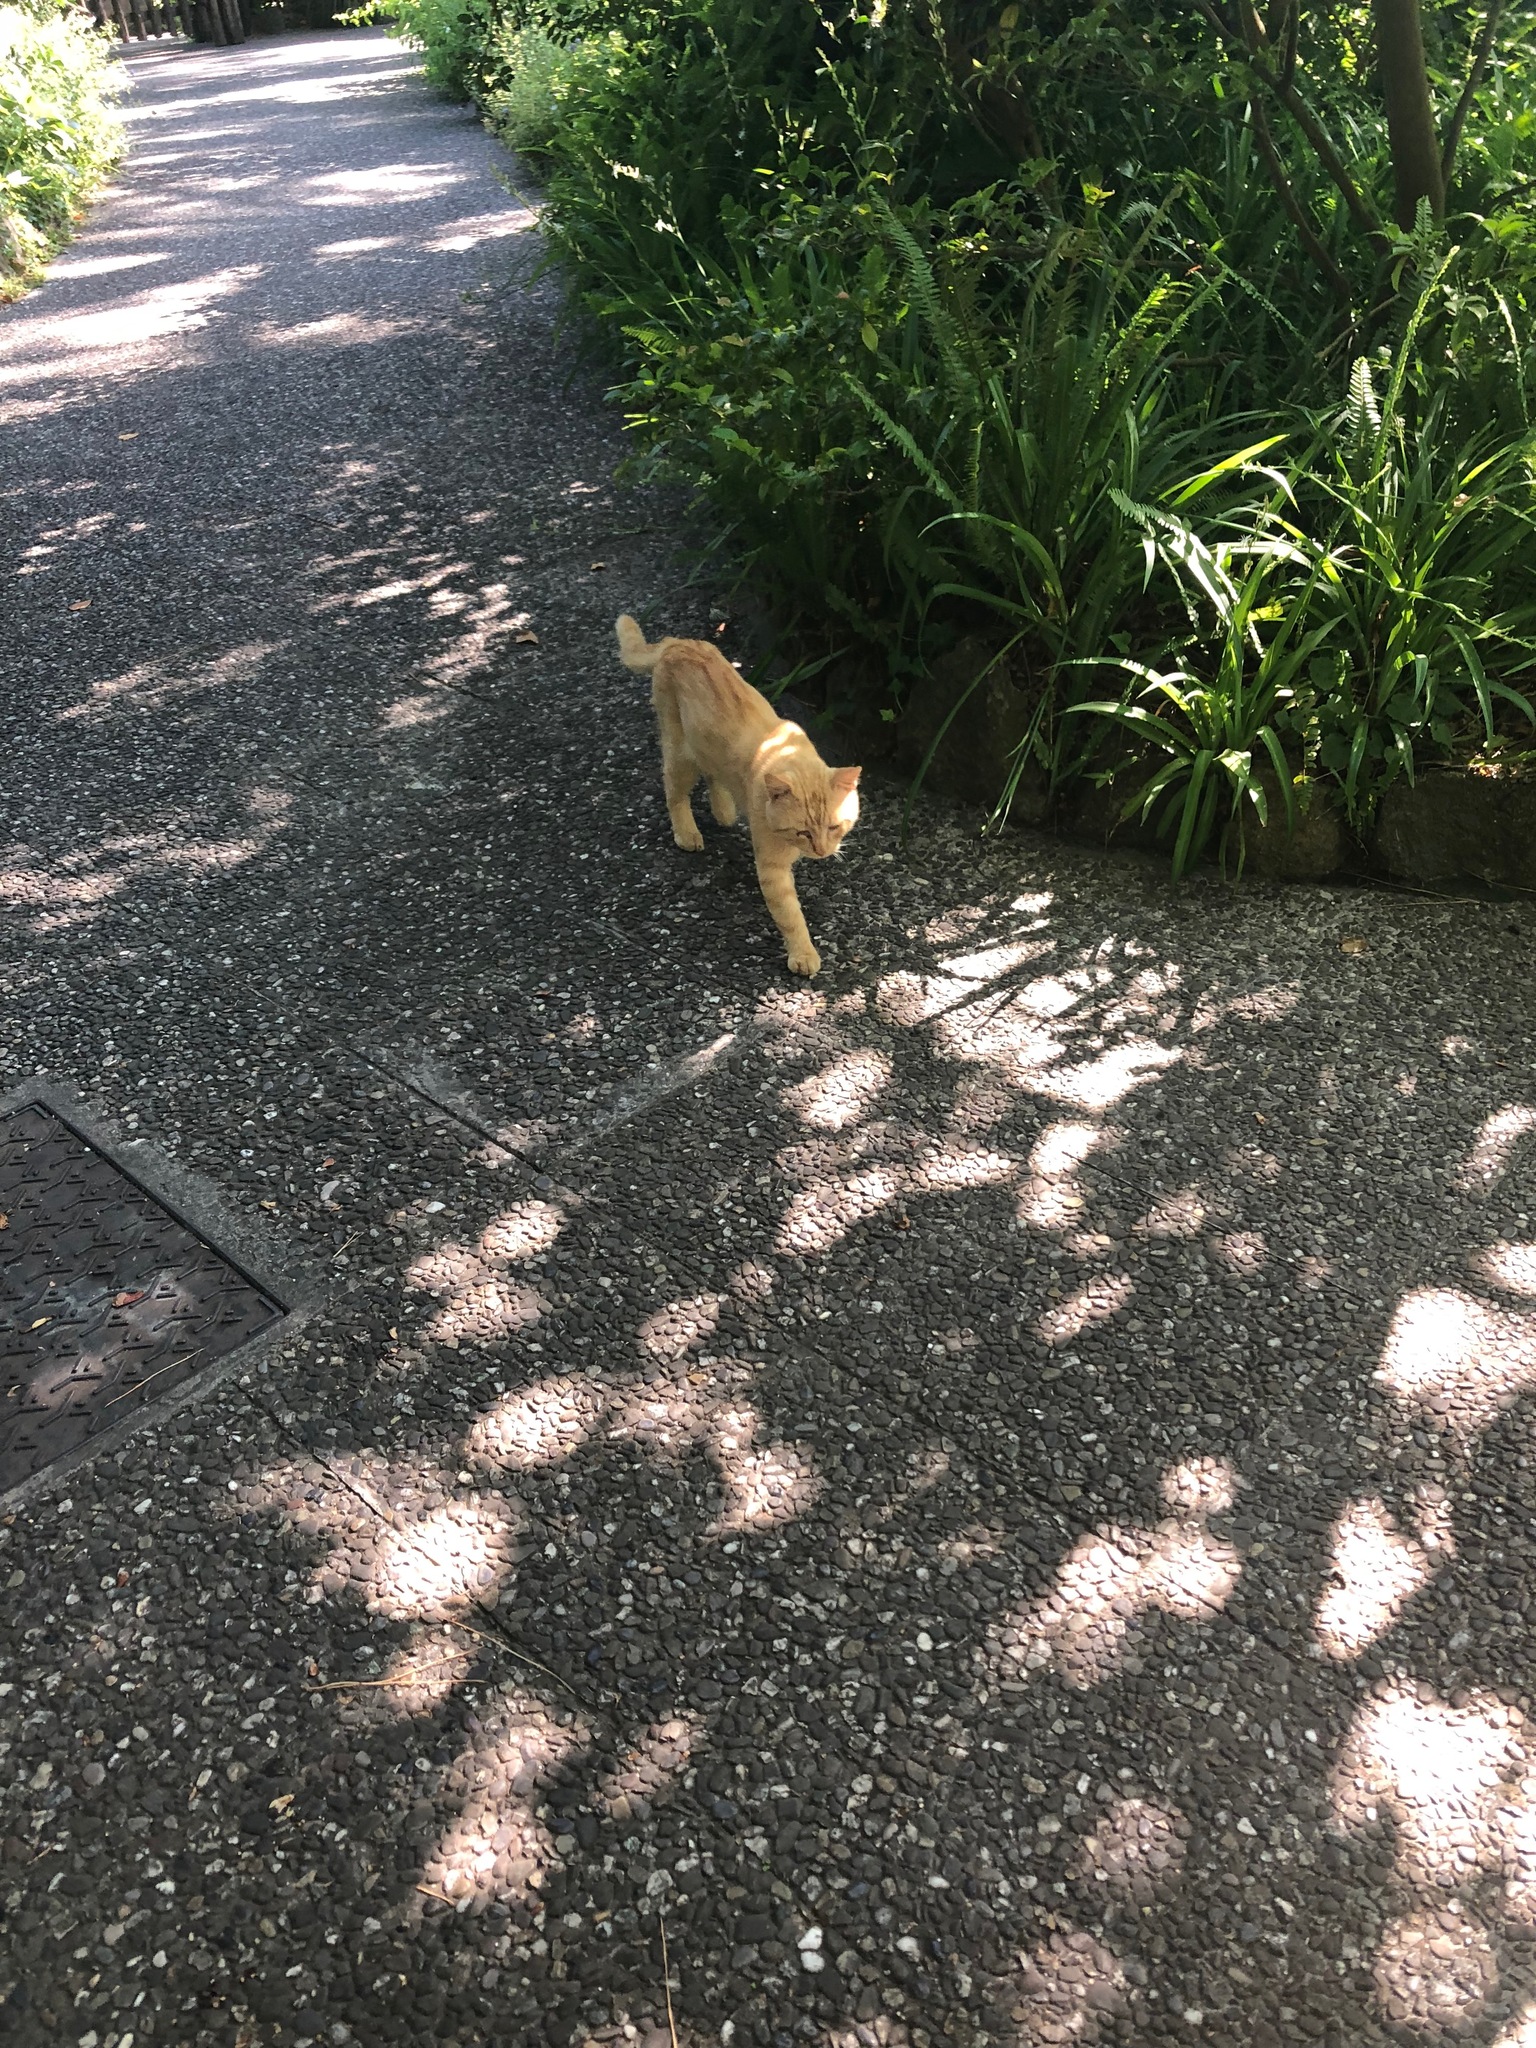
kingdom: Animalia
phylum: Chordata
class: Mammalia
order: Carnivora
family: Felidae
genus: Felis
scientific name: Felis catus
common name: Domestic cat
